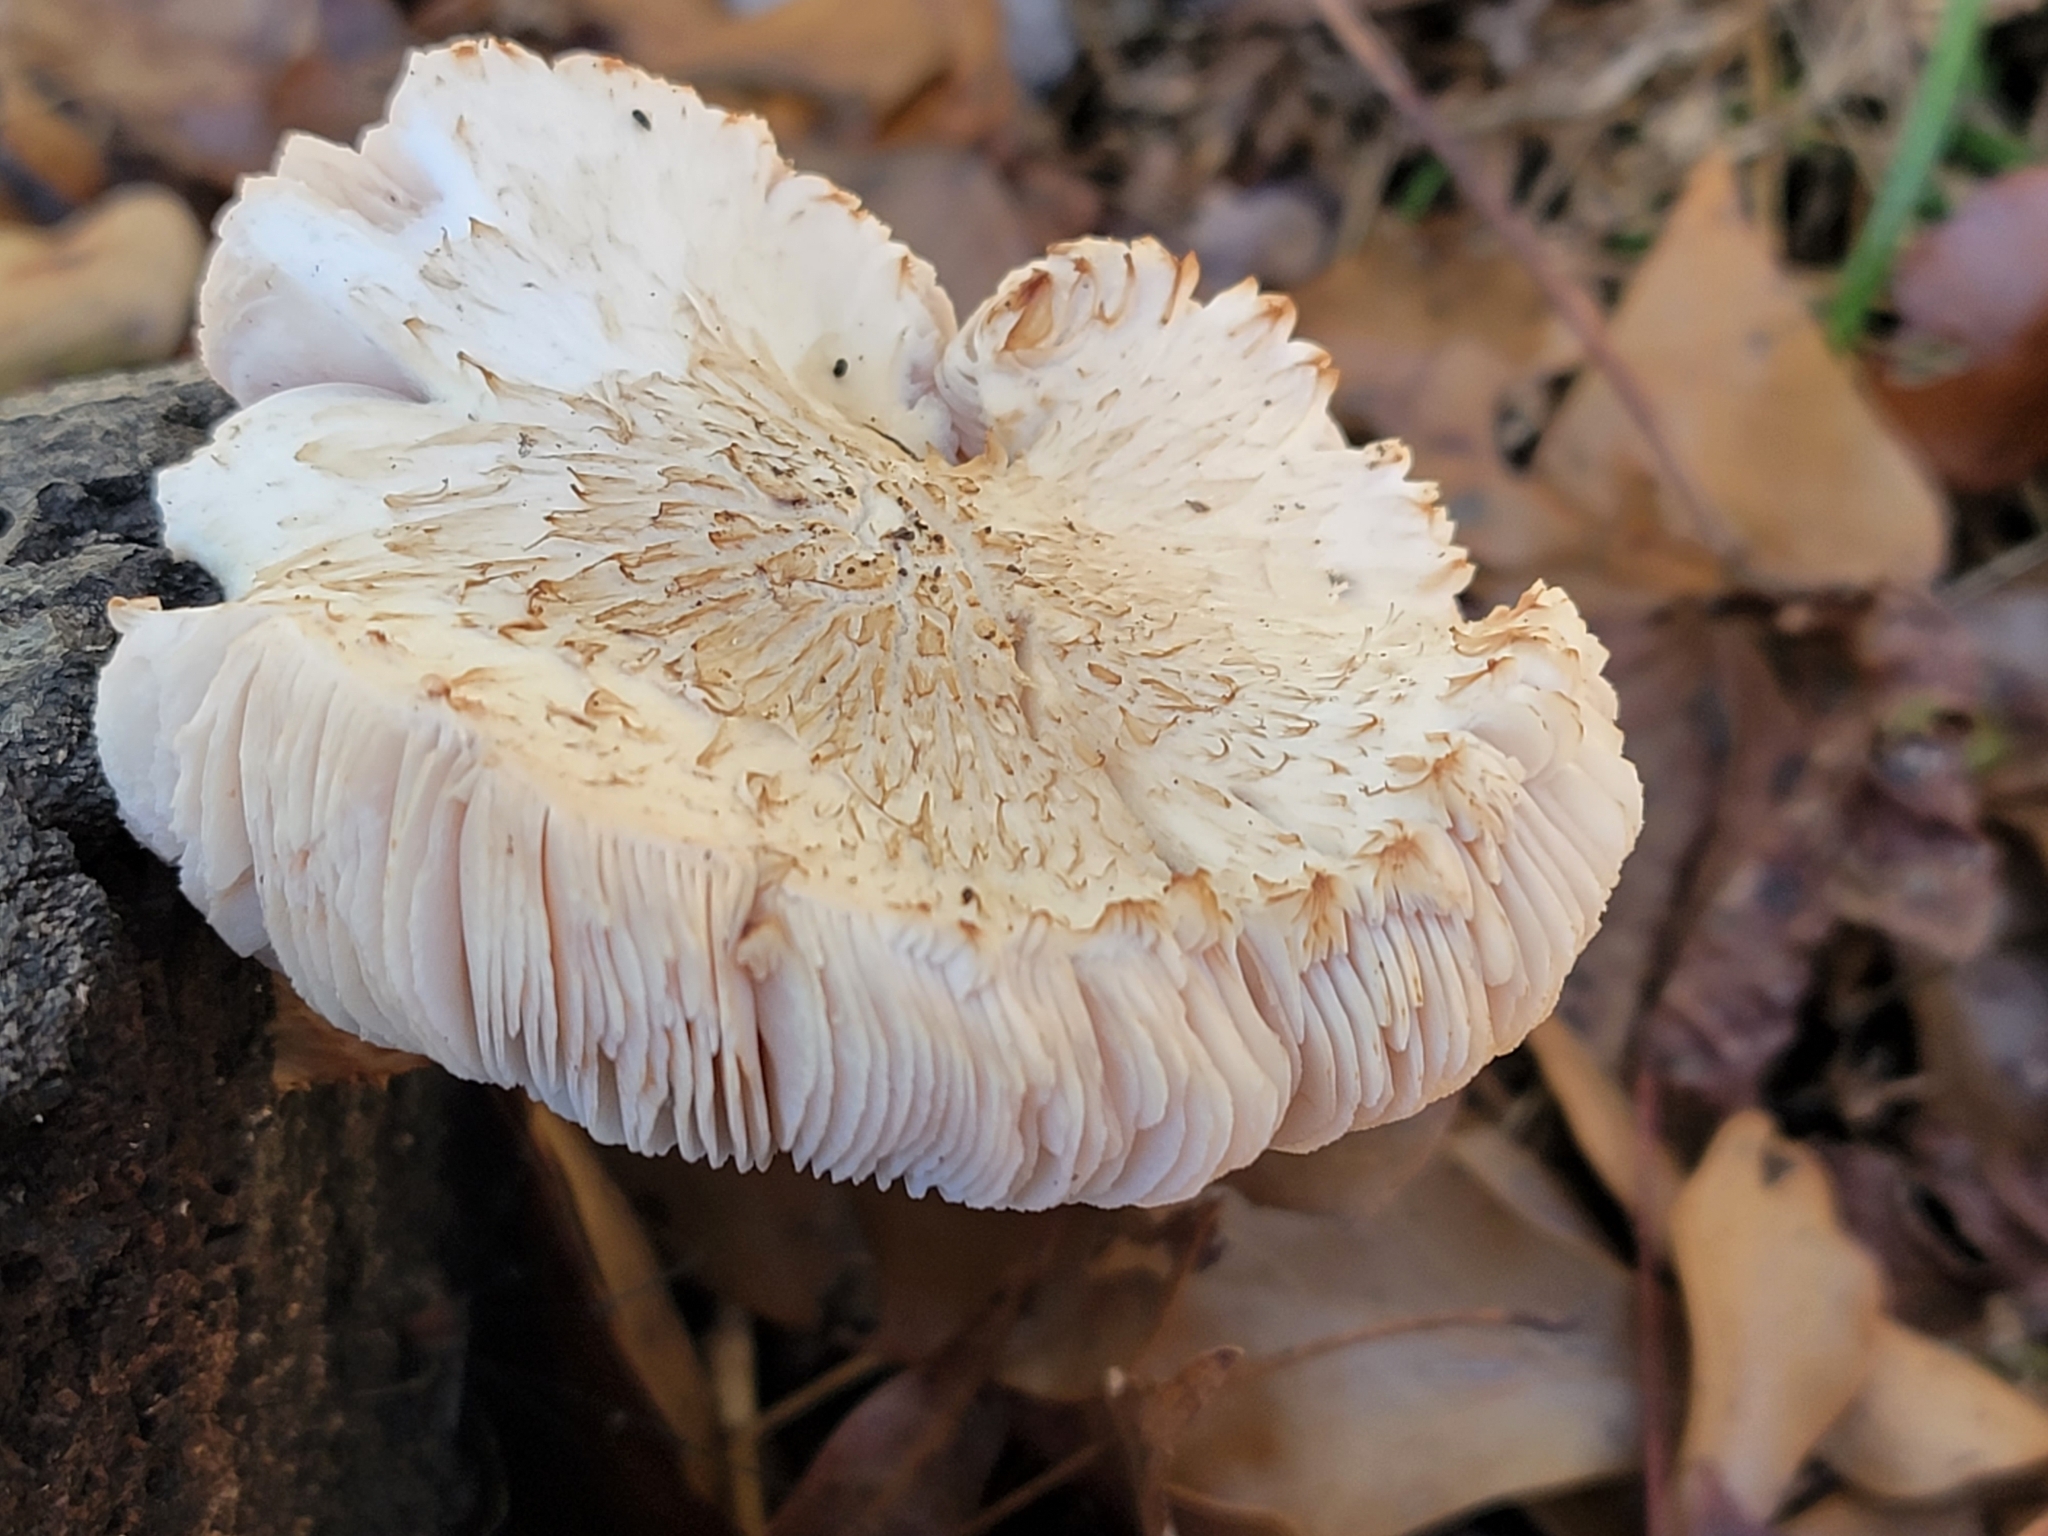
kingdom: Fungi
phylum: Basidiomycota
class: Agaricomycetes
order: Agaricales
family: Pluteaceae
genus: Pluteus
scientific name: Pluteus petasatus
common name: Scaly shield
